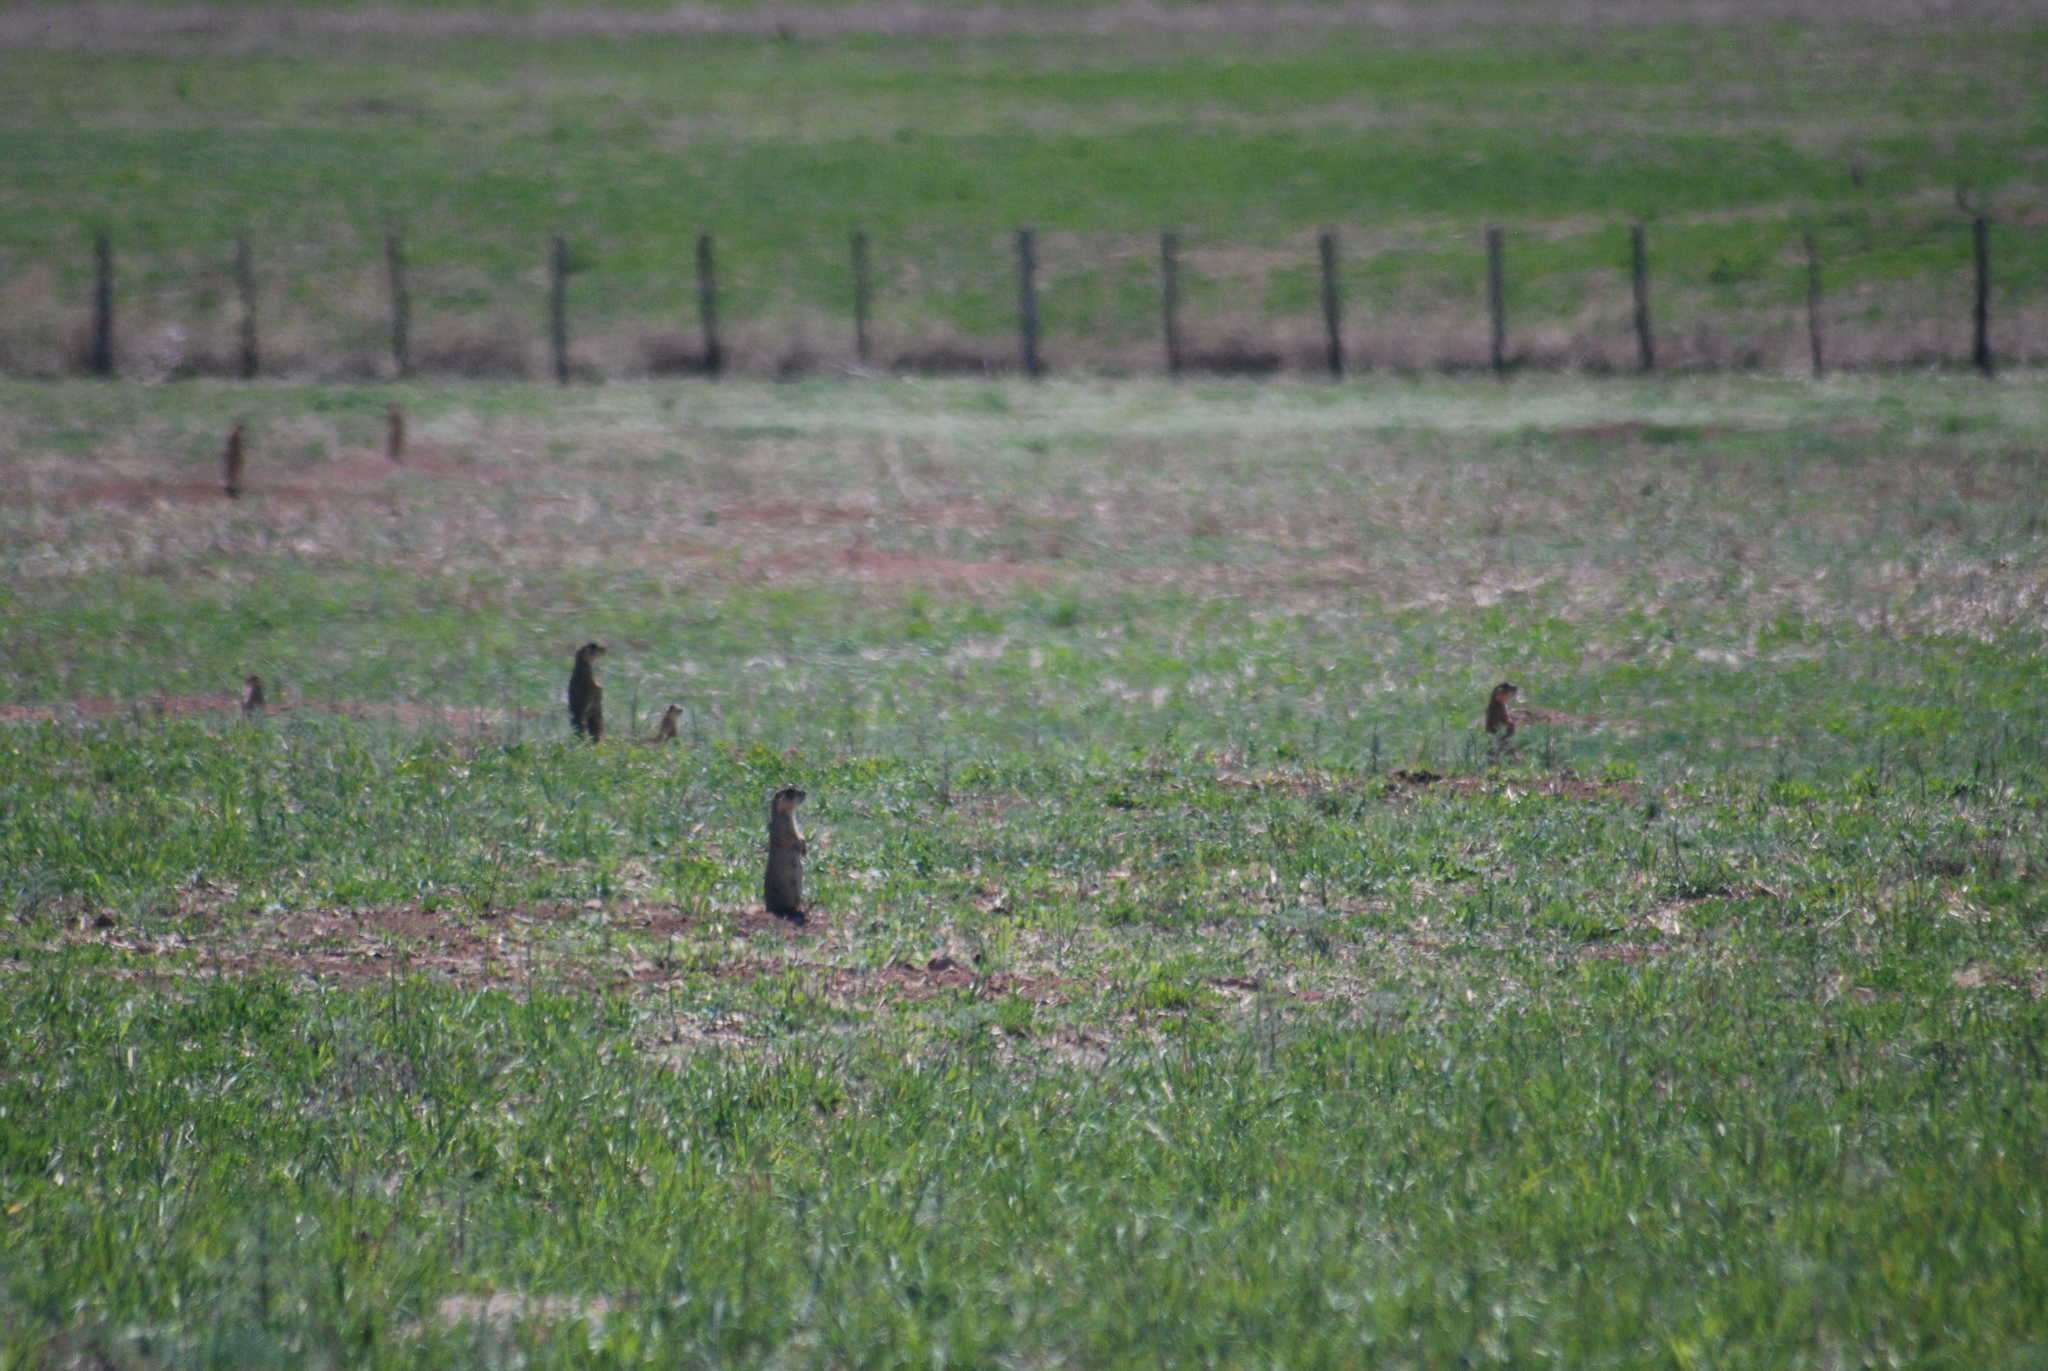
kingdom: Animalia
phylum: Chordata
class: Mammalia
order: Rodentia
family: Sciuridae
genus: Cynomys
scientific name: Cynomys gunnisoni
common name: Gunnison's prairie dog
